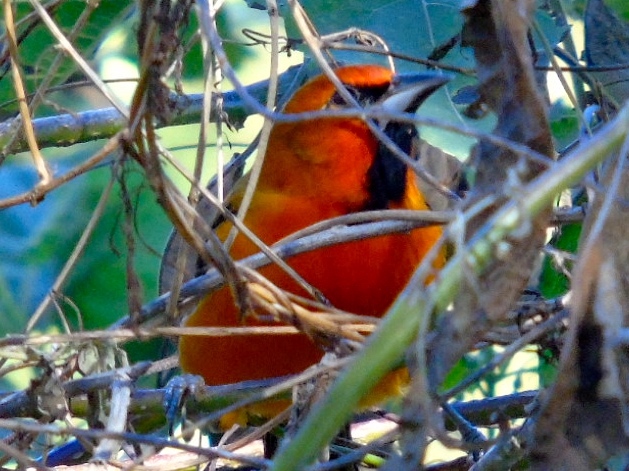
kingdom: Animalia
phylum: Chordata
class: Aves
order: Passeriformes
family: Icteridae
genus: Icterus
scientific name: Icterus pustulatus
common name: Streak-backed oriole
